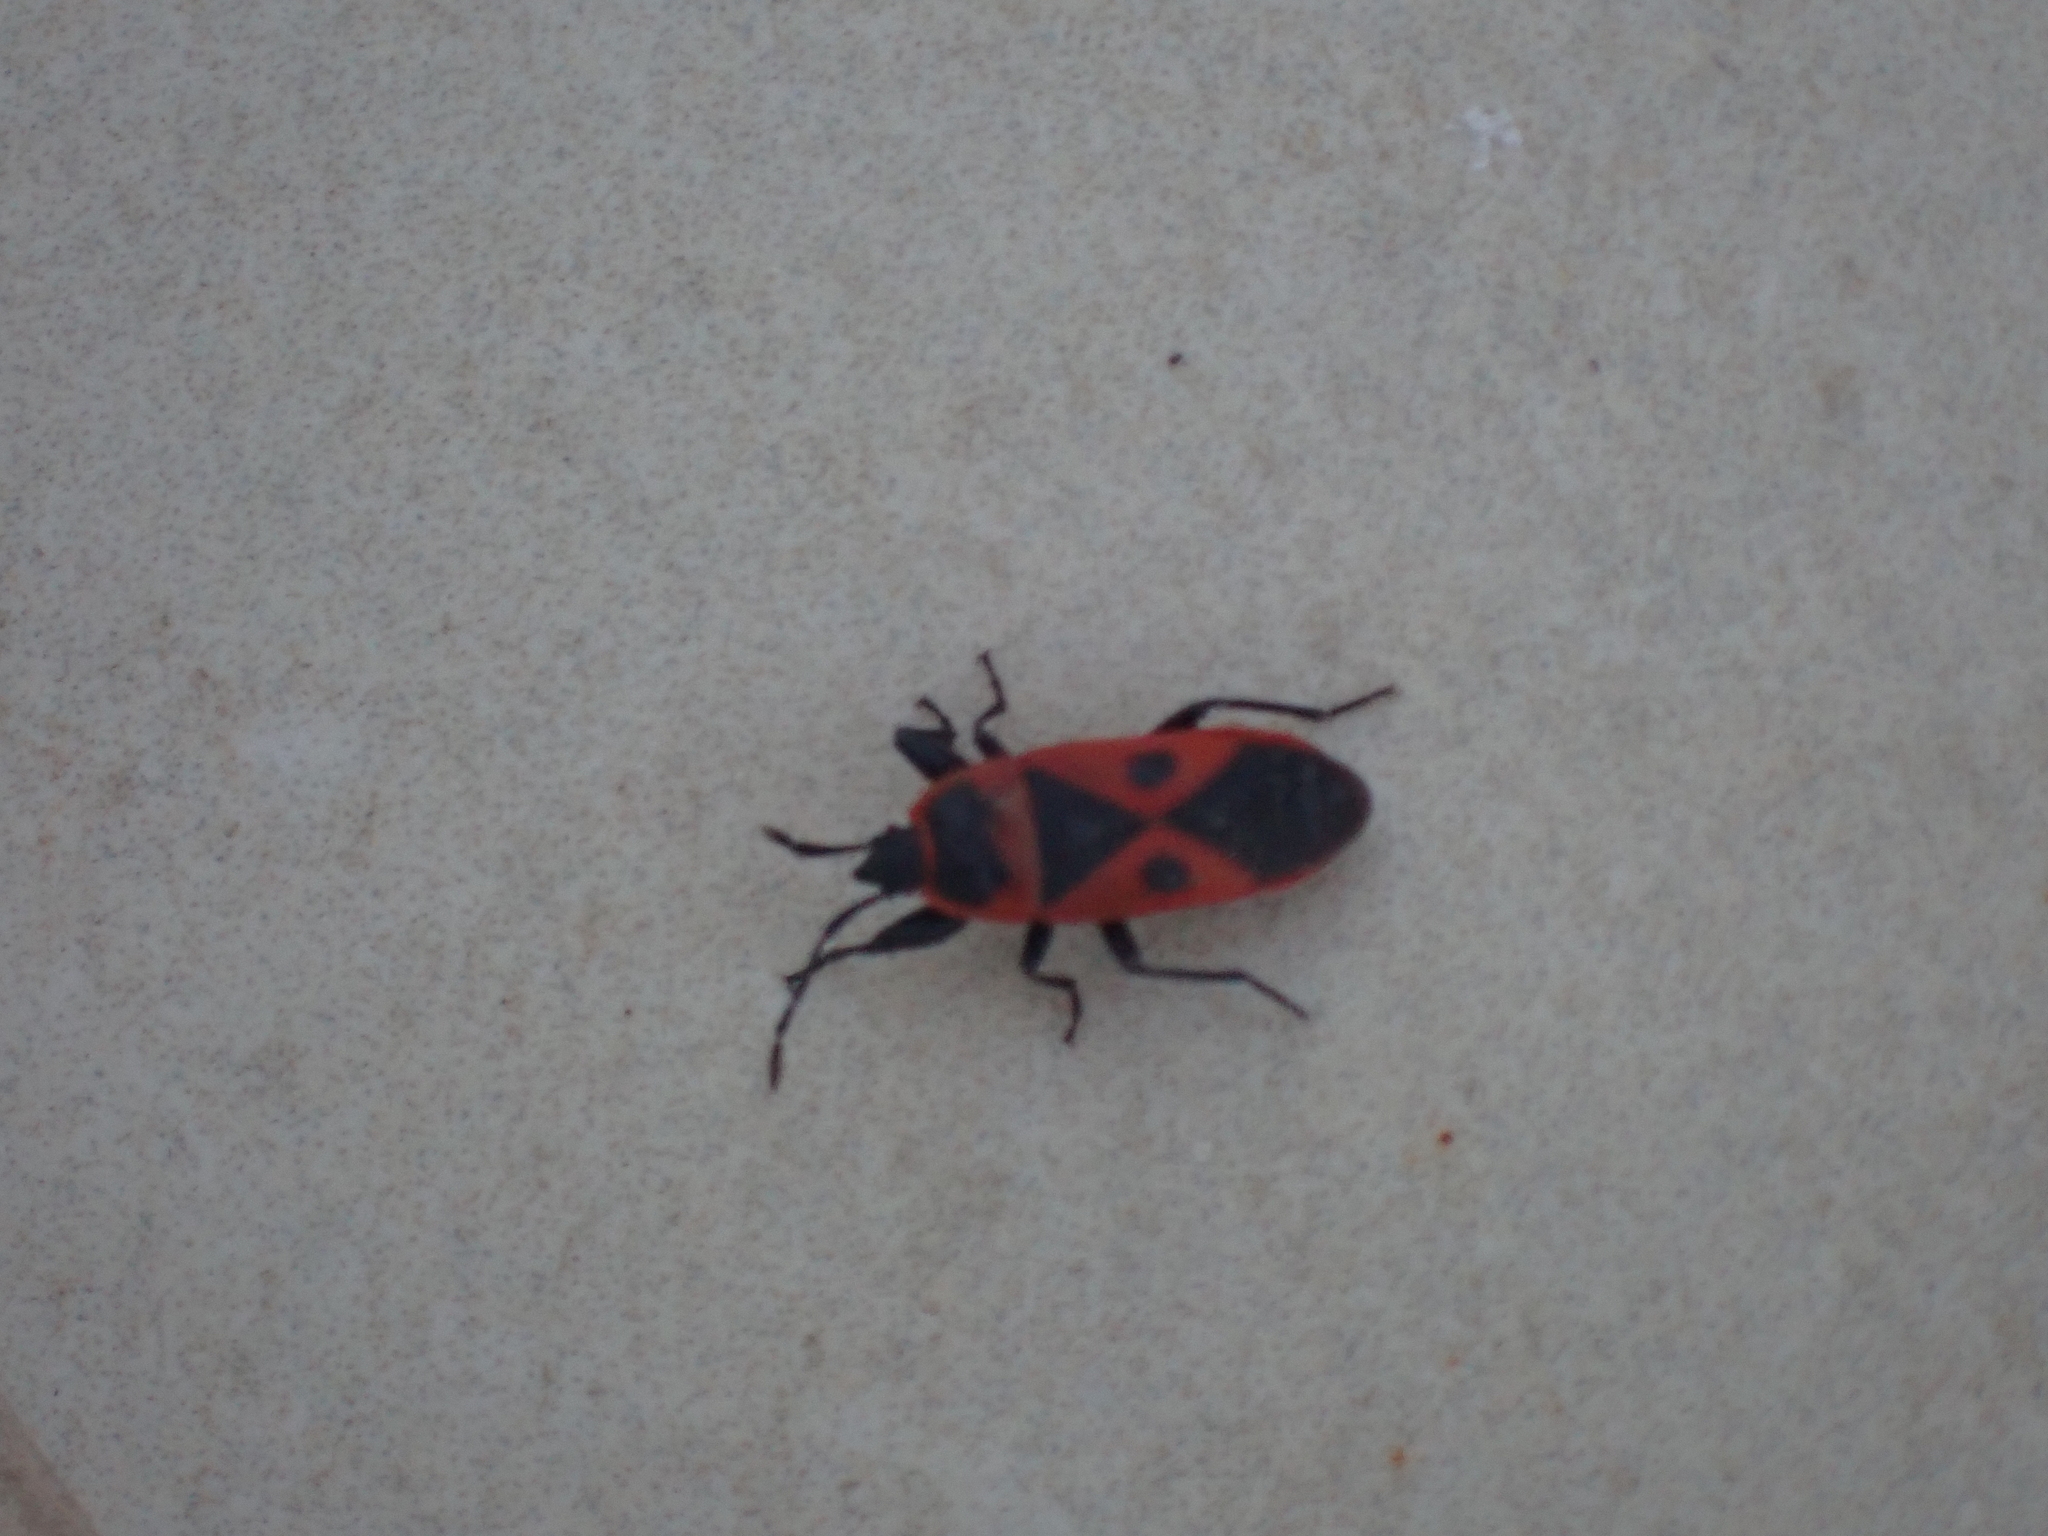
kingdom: Animalia
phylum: Arthropoda
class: Insecta
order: Hemiptera
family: Pyrrhocoridae
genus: Scantius
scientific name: Scantius aegyptius
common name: Red bug
